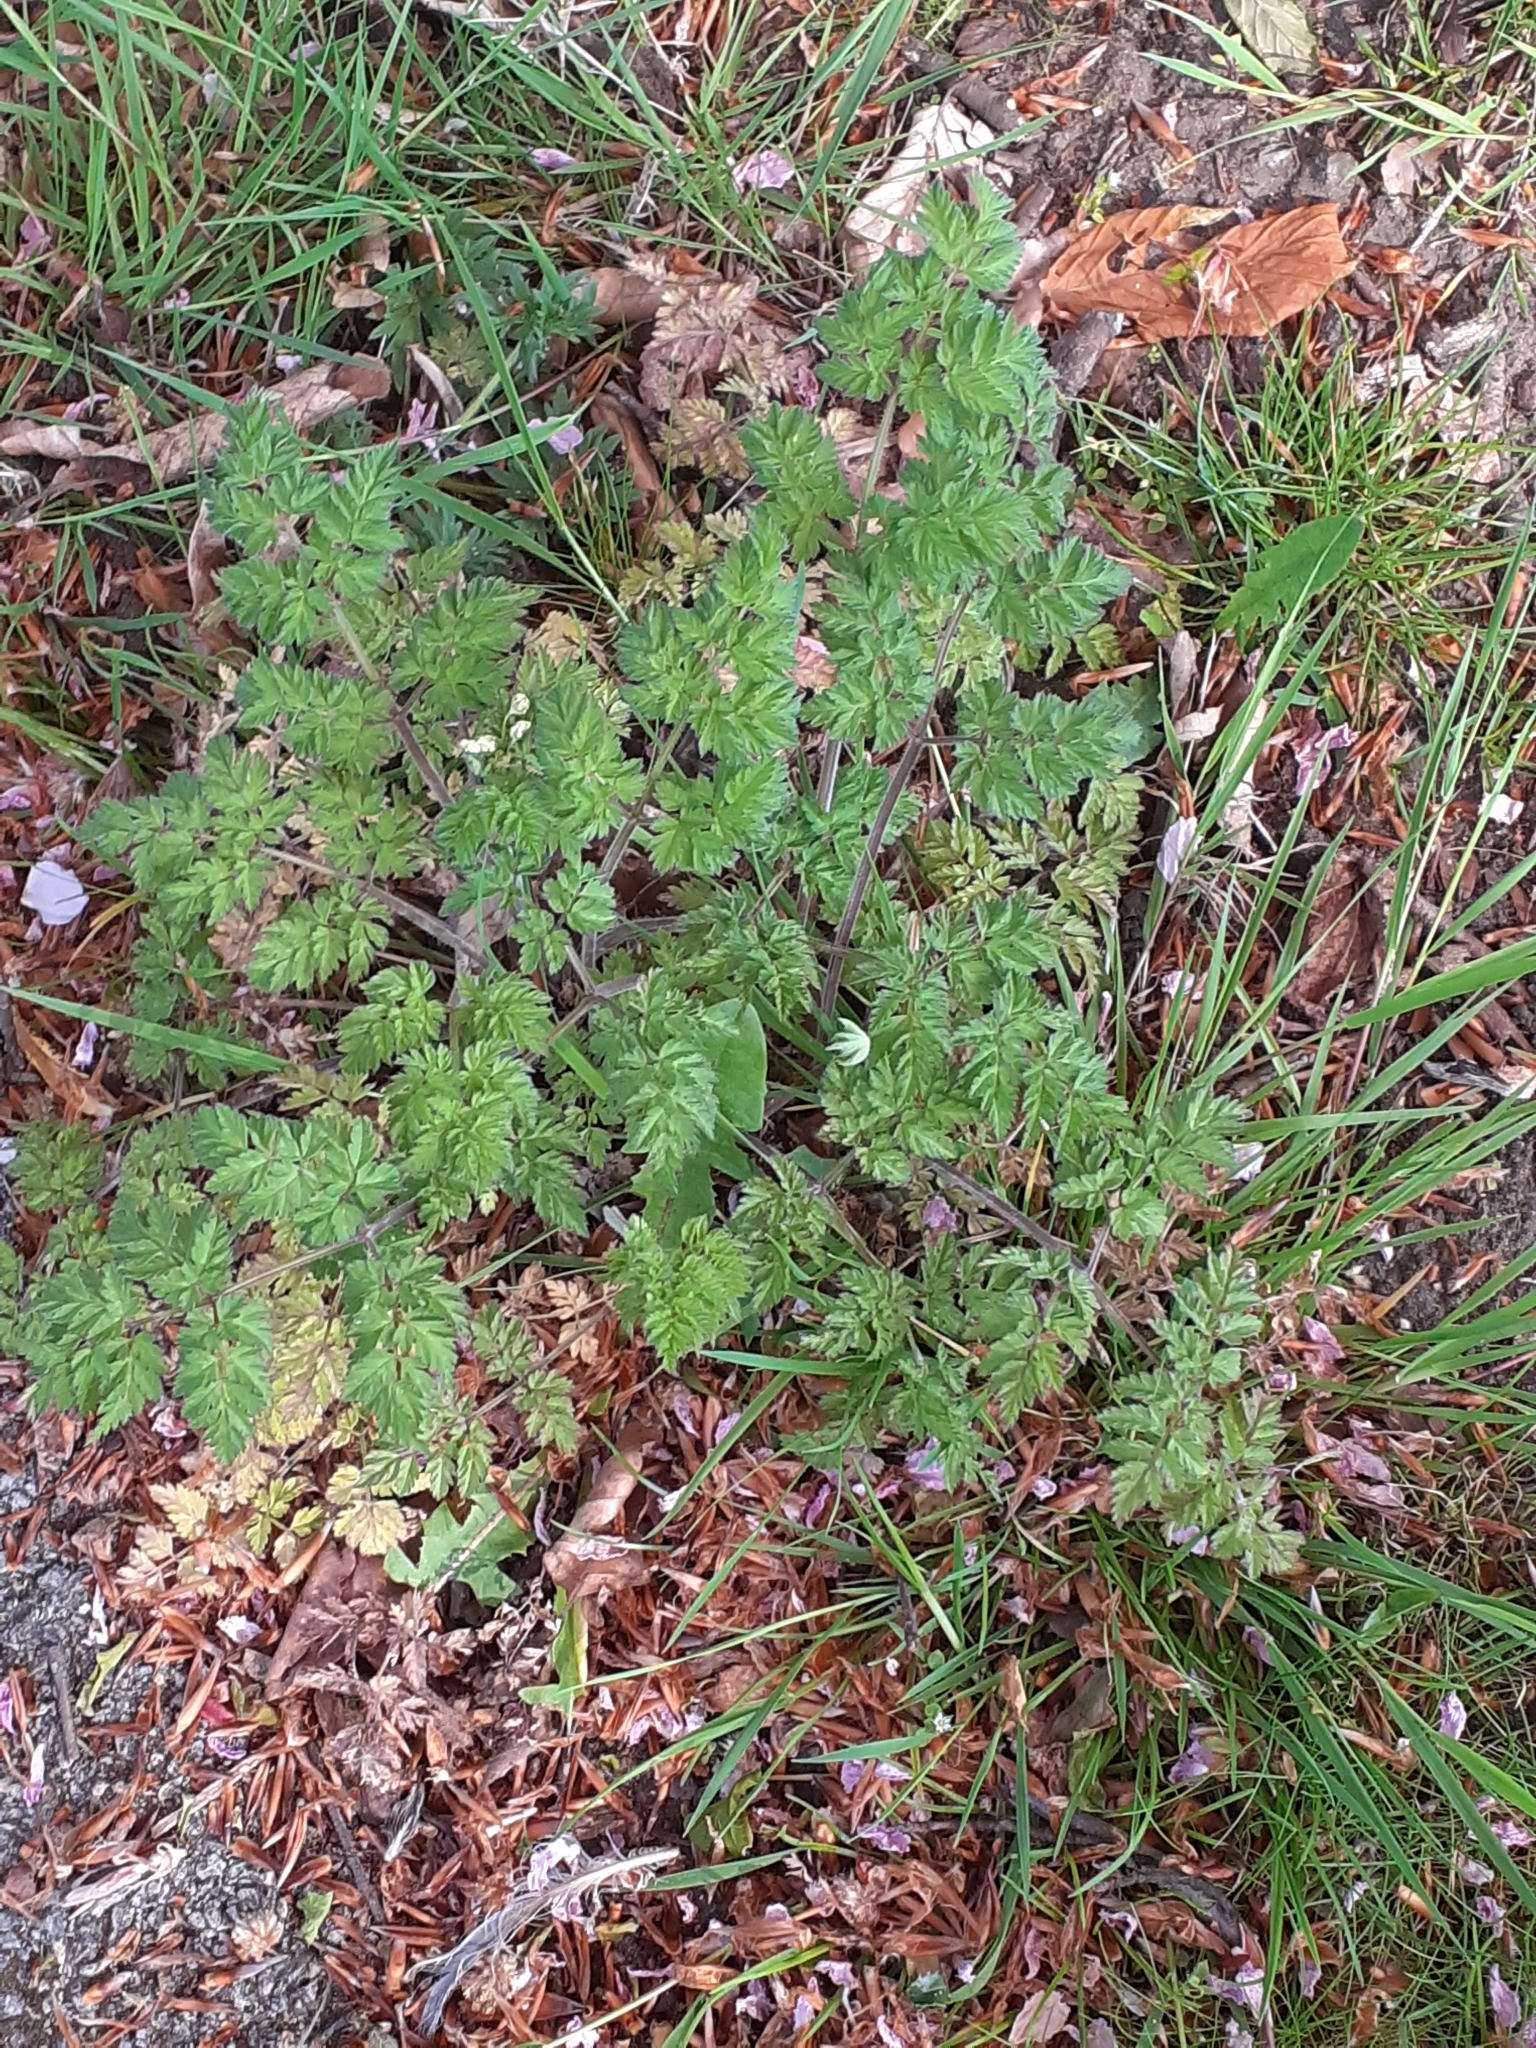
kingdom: Plantae
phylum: Tracheophyta
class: Magnoliopsida
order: Apiales
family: Apiaceae
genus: Anthriscus
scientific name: Anthriscus sylvestris
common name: Cow parsley
